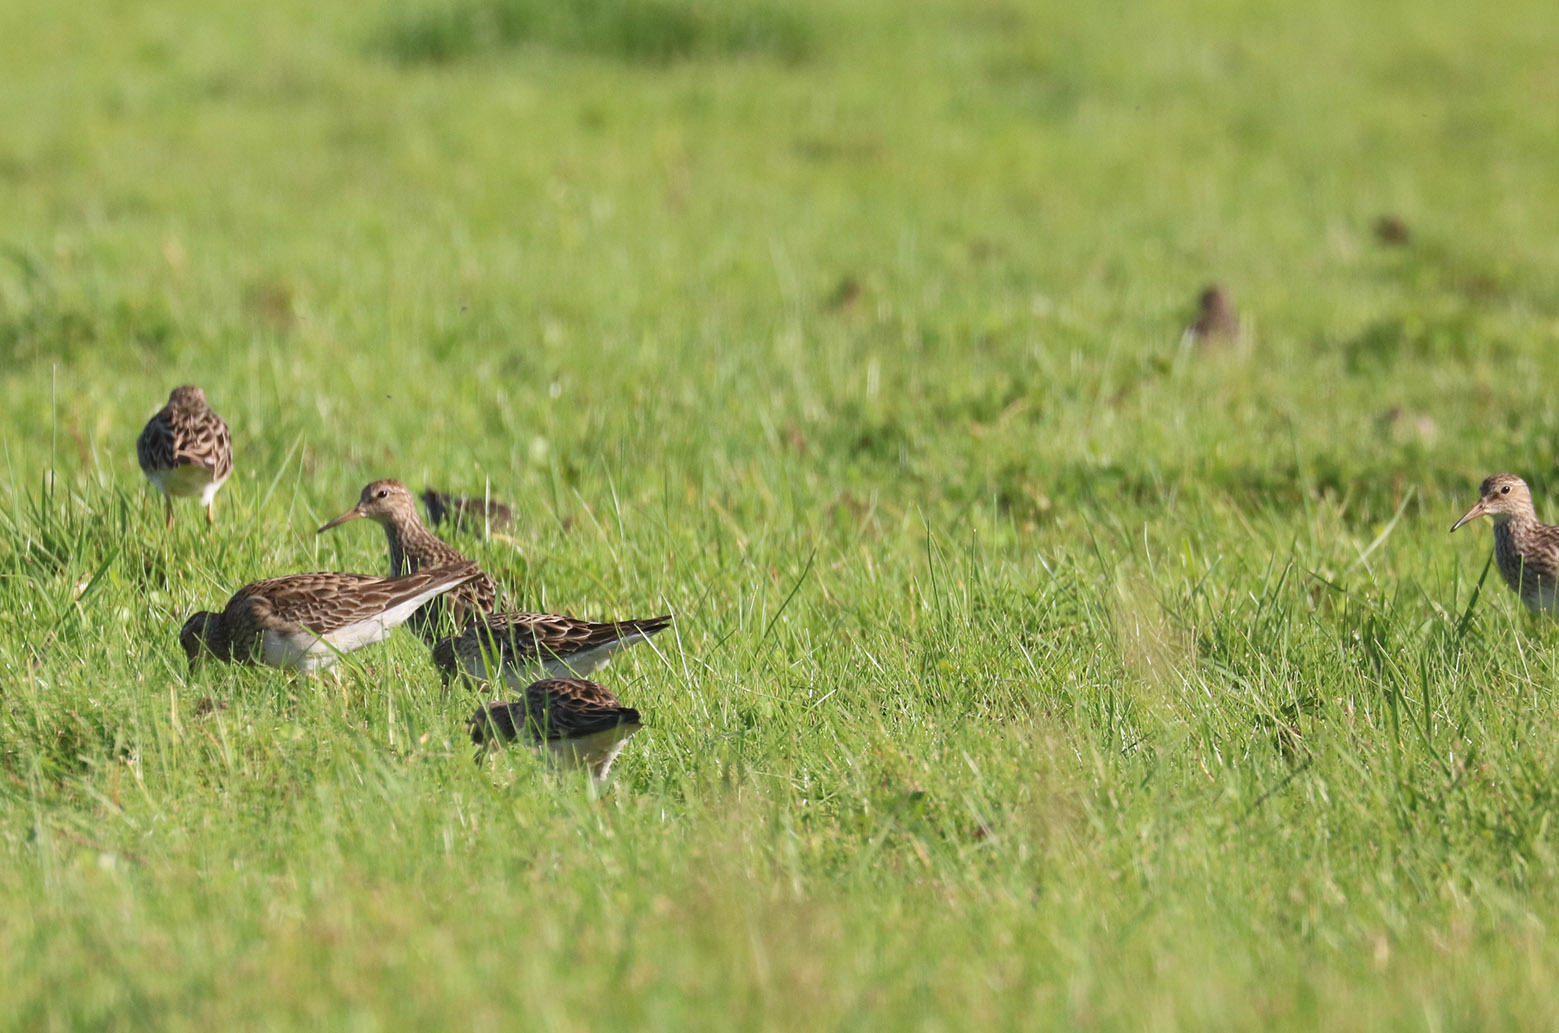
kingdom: Animalia
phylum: Chordata
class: Aves
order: Charadriiformes
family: Scolopacidae
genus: Calidris
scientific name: Calidris melanotos
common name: Pectoral sandpiper
